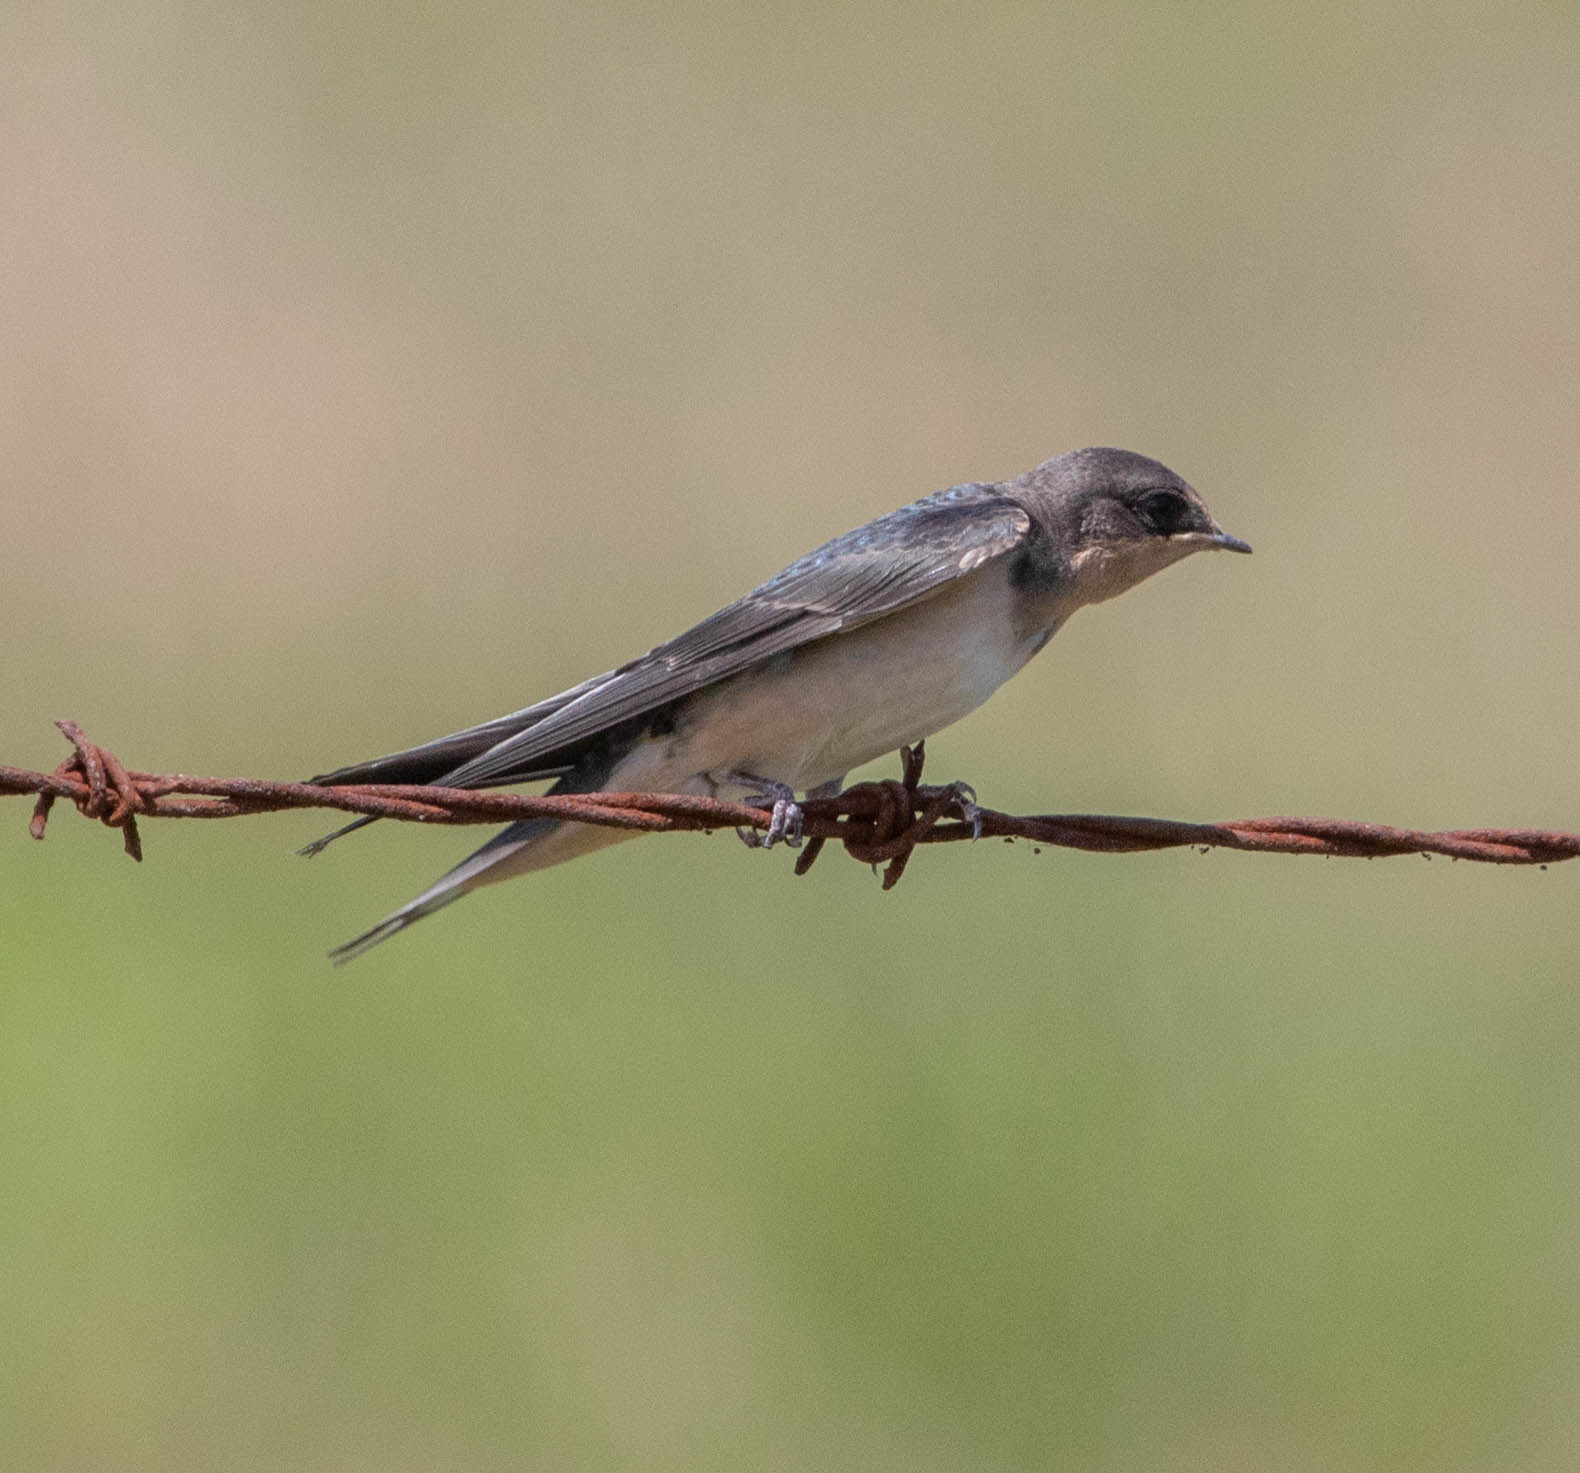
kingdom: Animalia
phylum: Chordata
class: Aves
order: Passeriformes
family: Hirundinidae
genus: Hirundo
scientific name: Hirundo rustica
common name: Barn swallow
